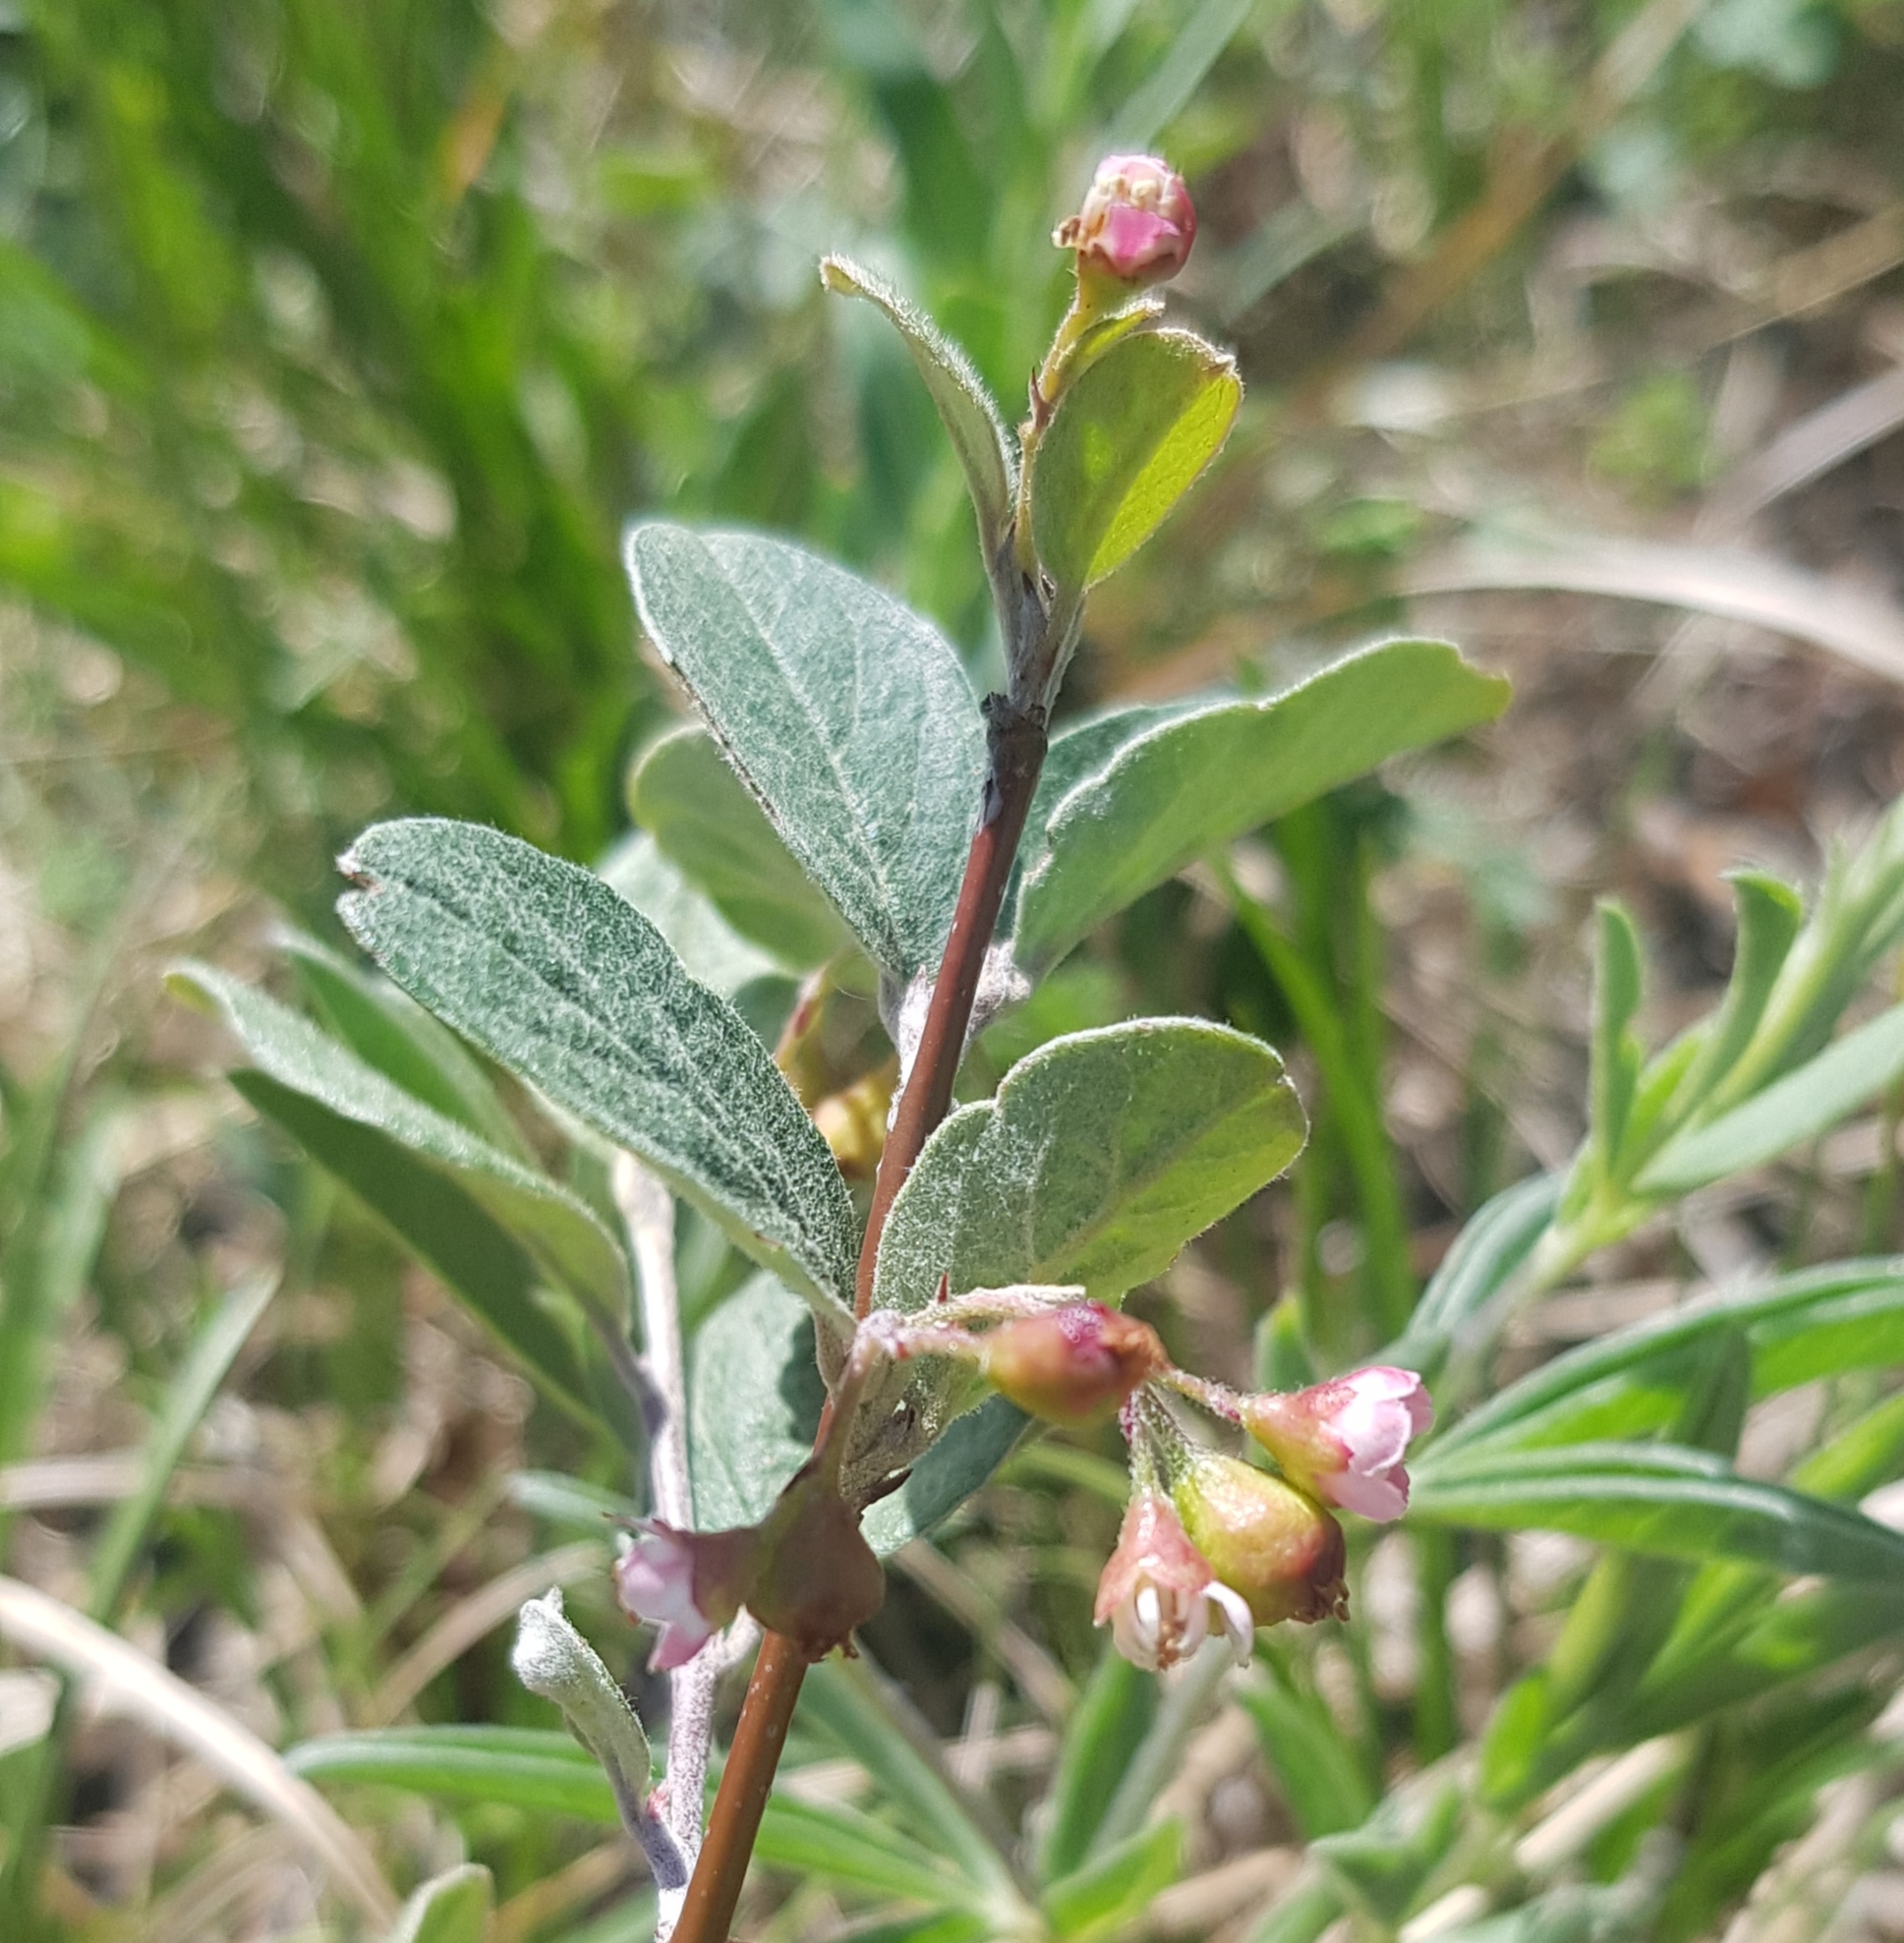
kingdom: Plantae
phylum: Tracheophyta
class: Magnoliopsida
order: Rosales
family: Rosaceae
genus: Cotoneaster
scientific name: Cotoneaster melanocarpus
